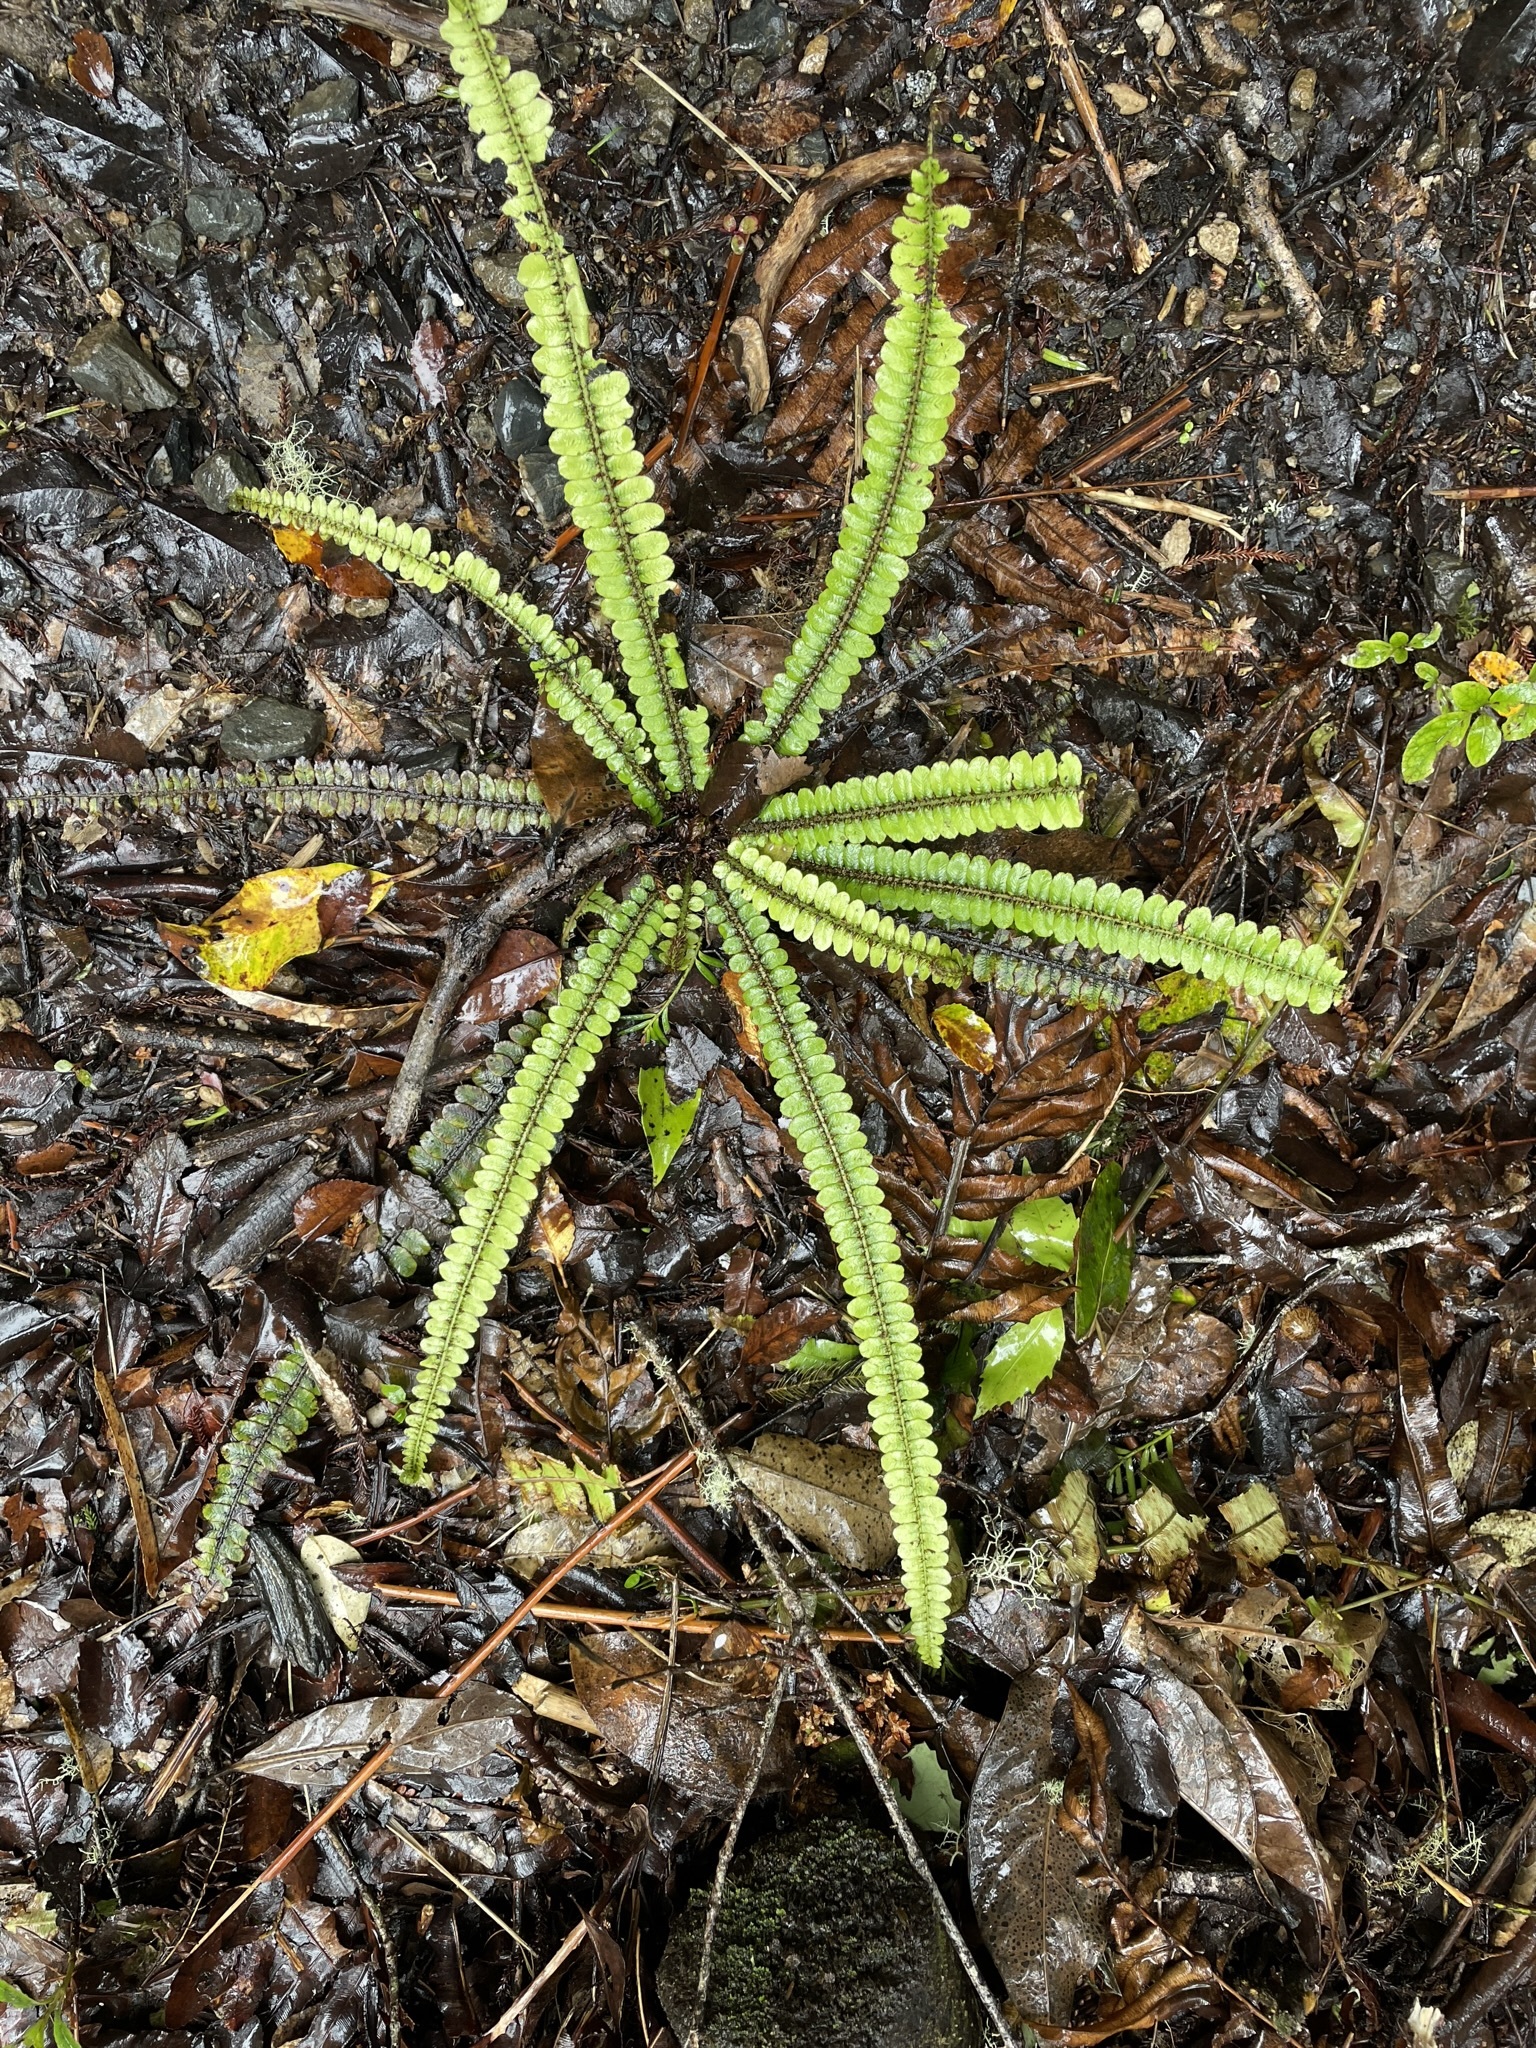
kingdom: Plantae
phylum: Tracheophyta
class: Polypodiopsida
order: Polypodiales
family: Blechnaceae
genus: Cranfillia
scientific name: Cranfillia fluviatilis
